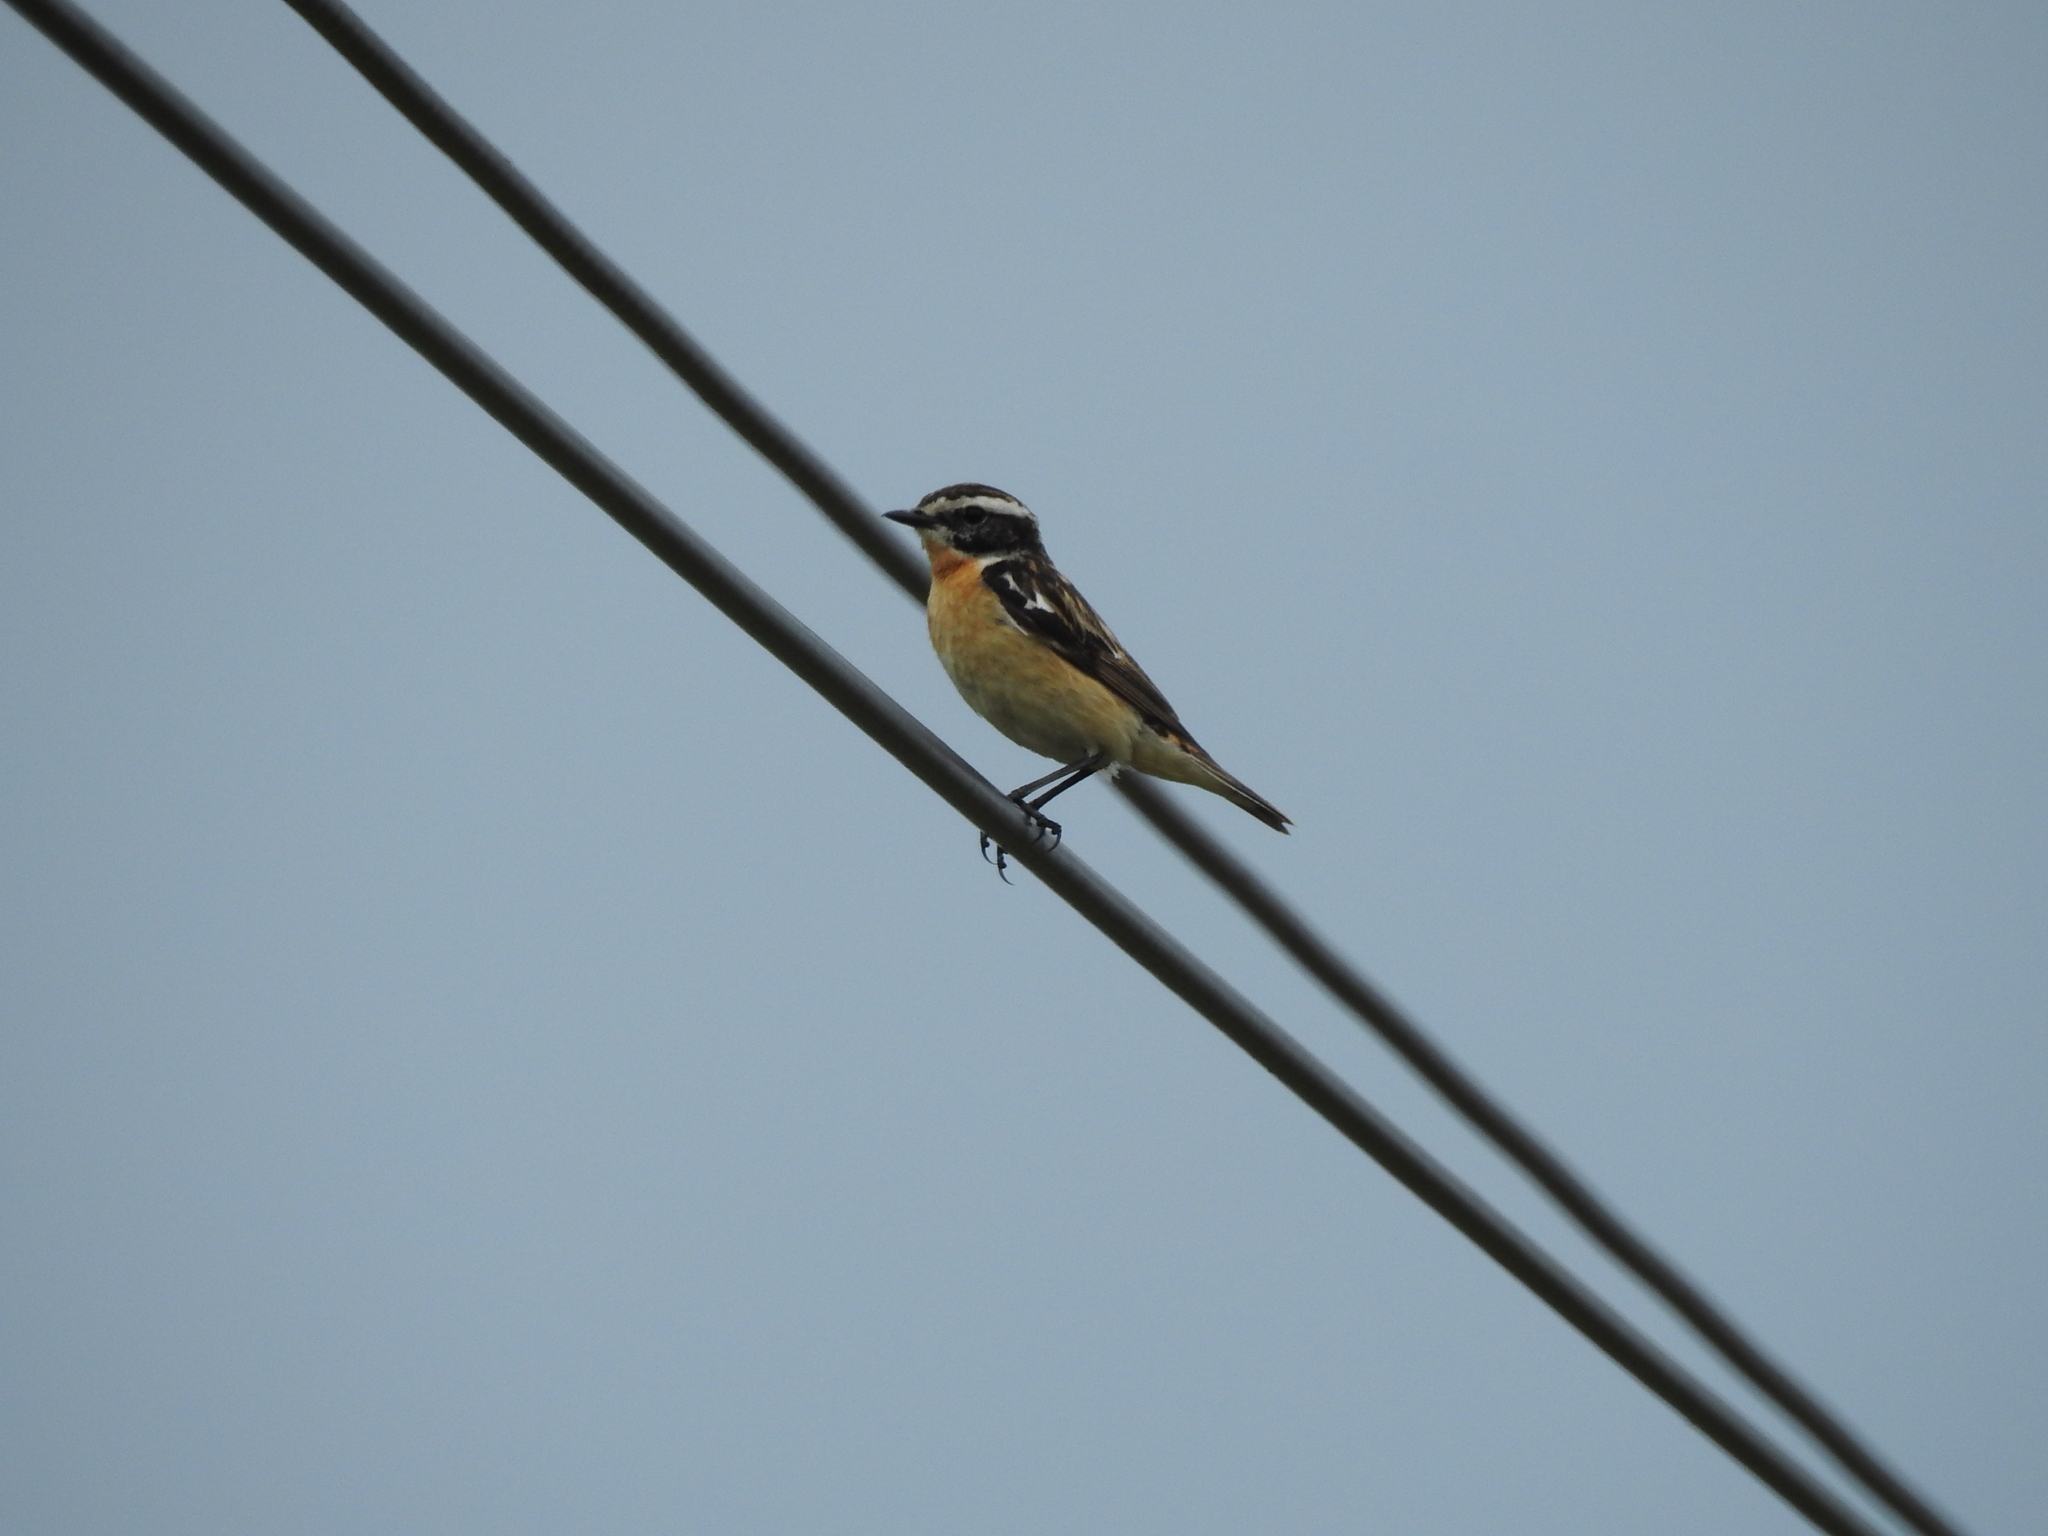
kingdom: Animalia
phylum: Chordata
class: Aves
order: Passeriformes
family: Muscicapidae
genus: Saxicola
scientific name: Saxicola rubetra
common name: Whinchat
